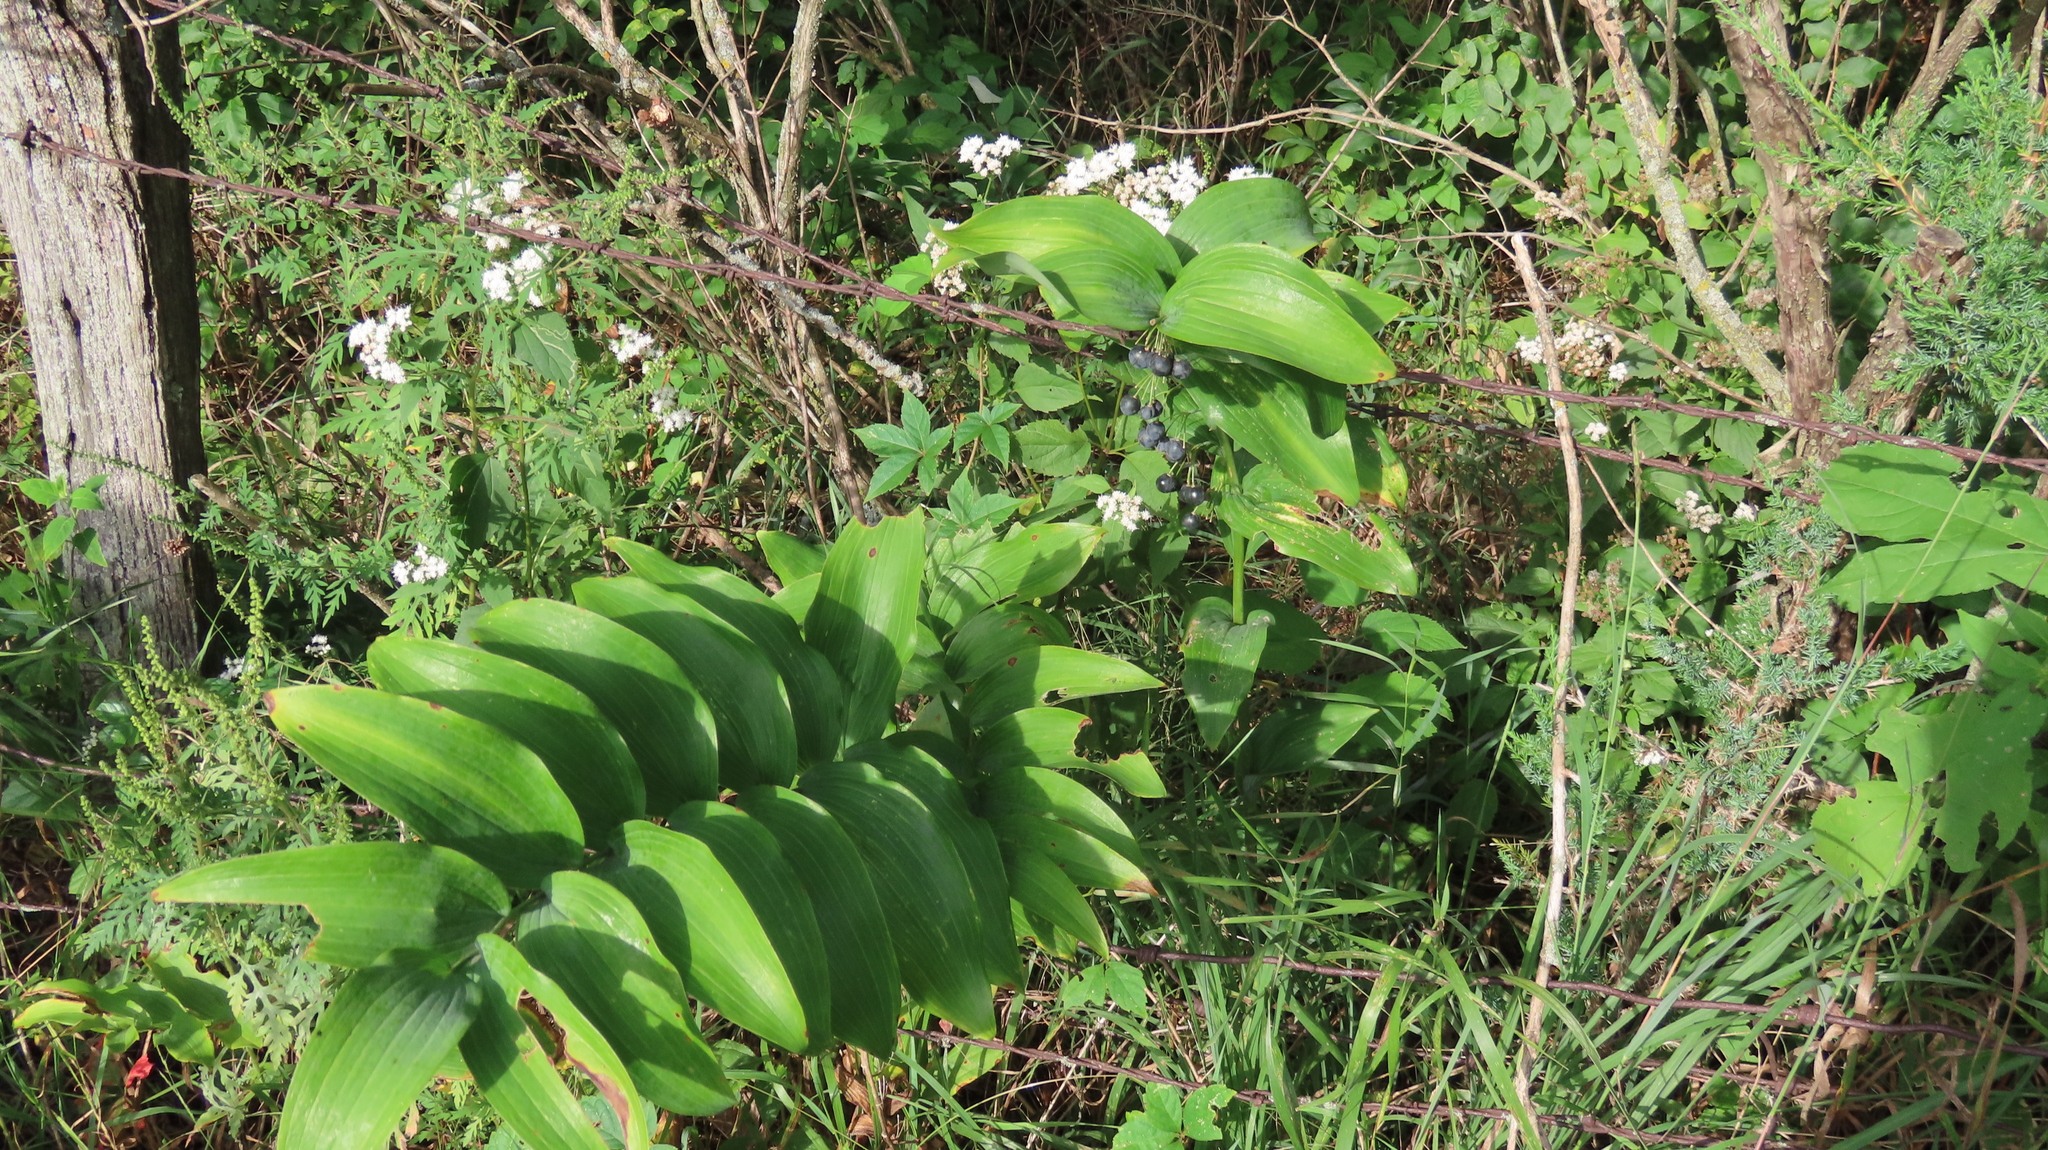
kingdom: Plantae
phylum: Tracheophyta
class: Liliopsida
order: Asparagales
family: Asparagaceae
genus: Polygonatum
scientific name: Polygonatum biflorum
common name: American solomon's-seal
